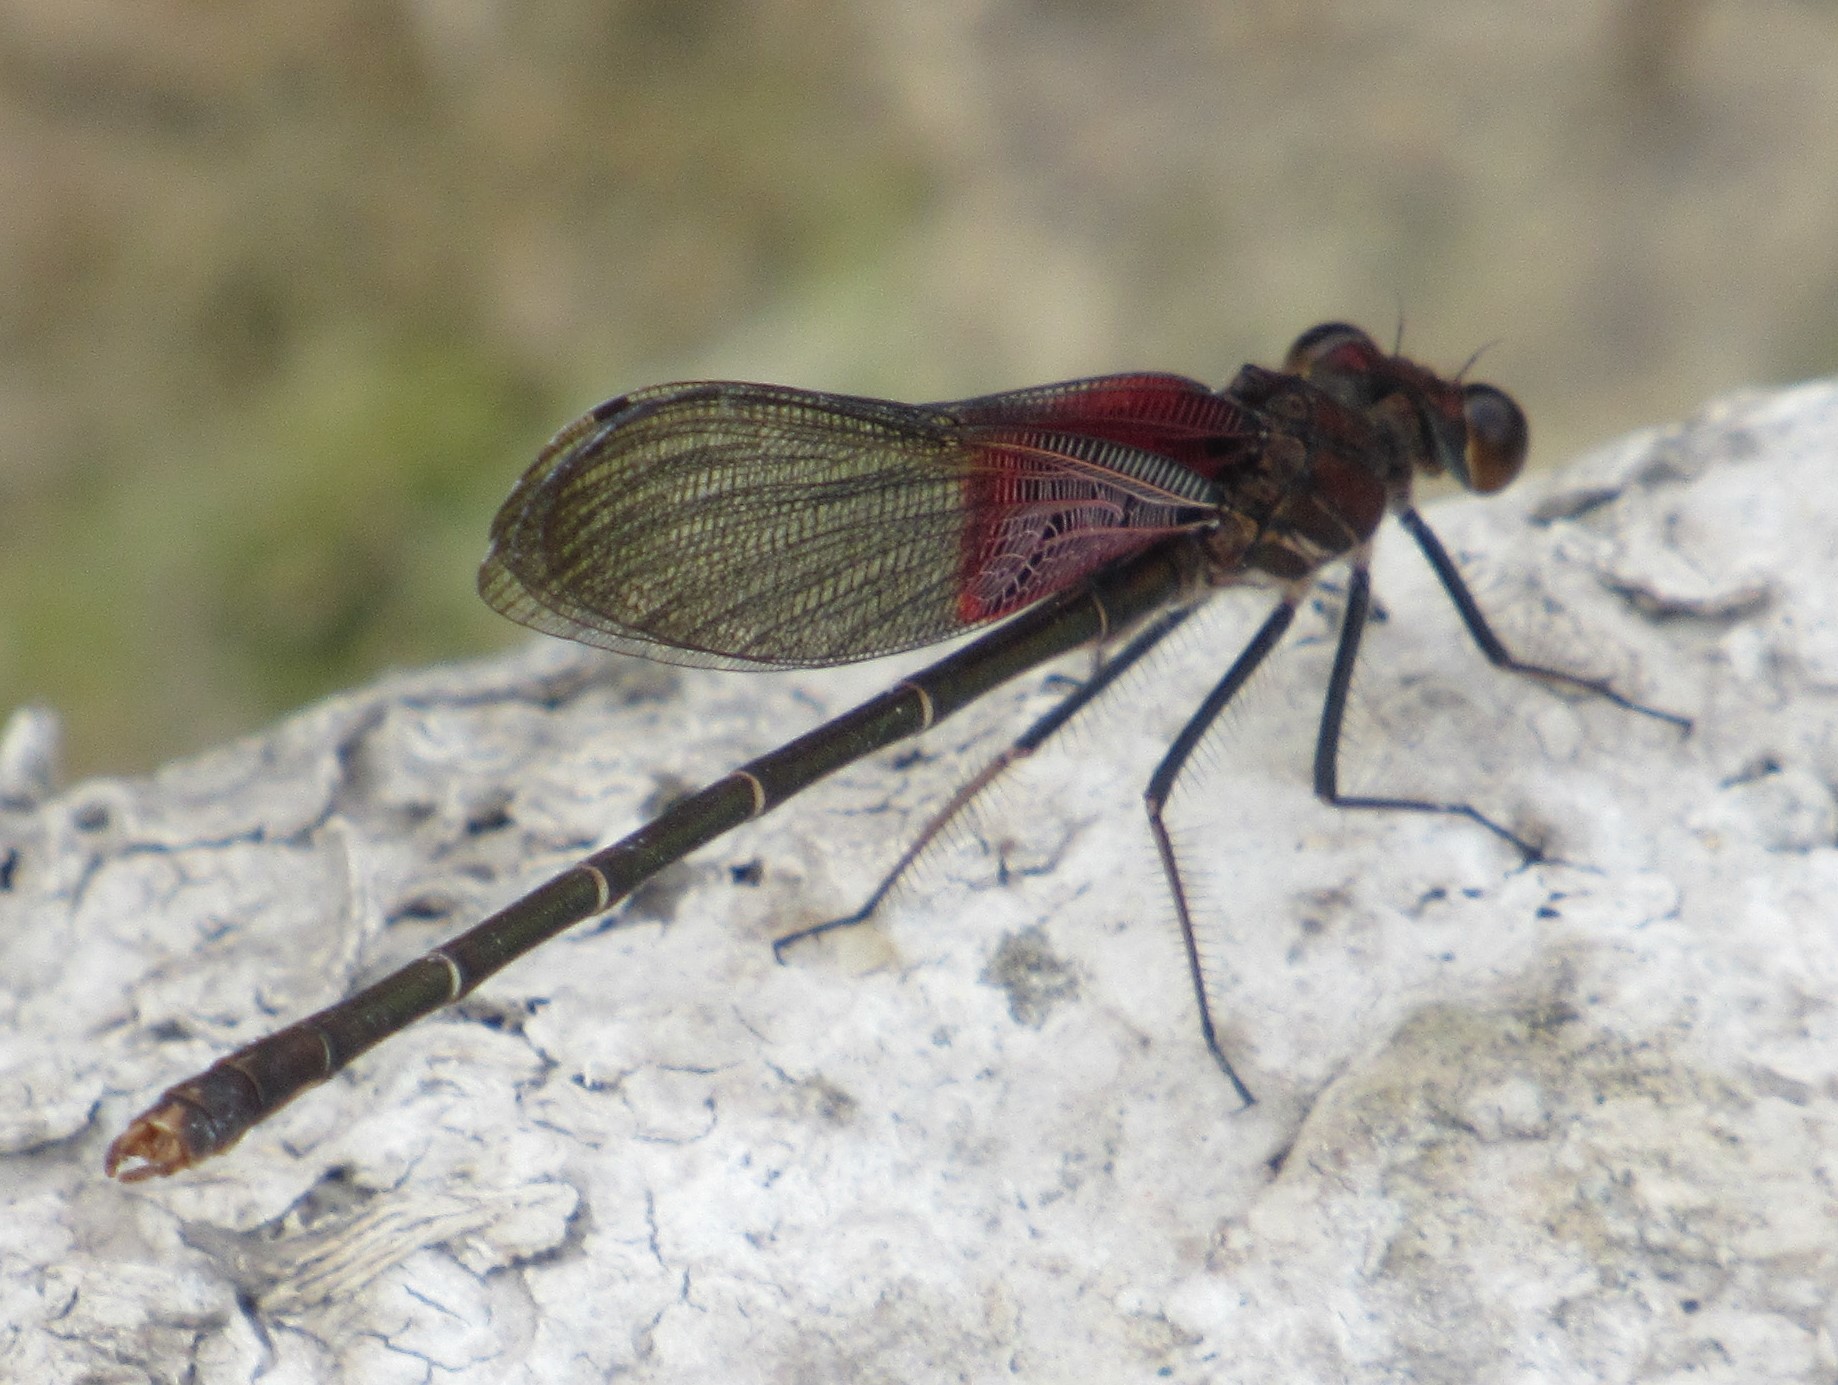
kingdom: Animalia
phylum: Arthropoda
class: Insecta
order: Odonata
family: Calopterygidae
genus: Hetaerina
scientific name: Hetaerina americana
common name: American rubyspot
